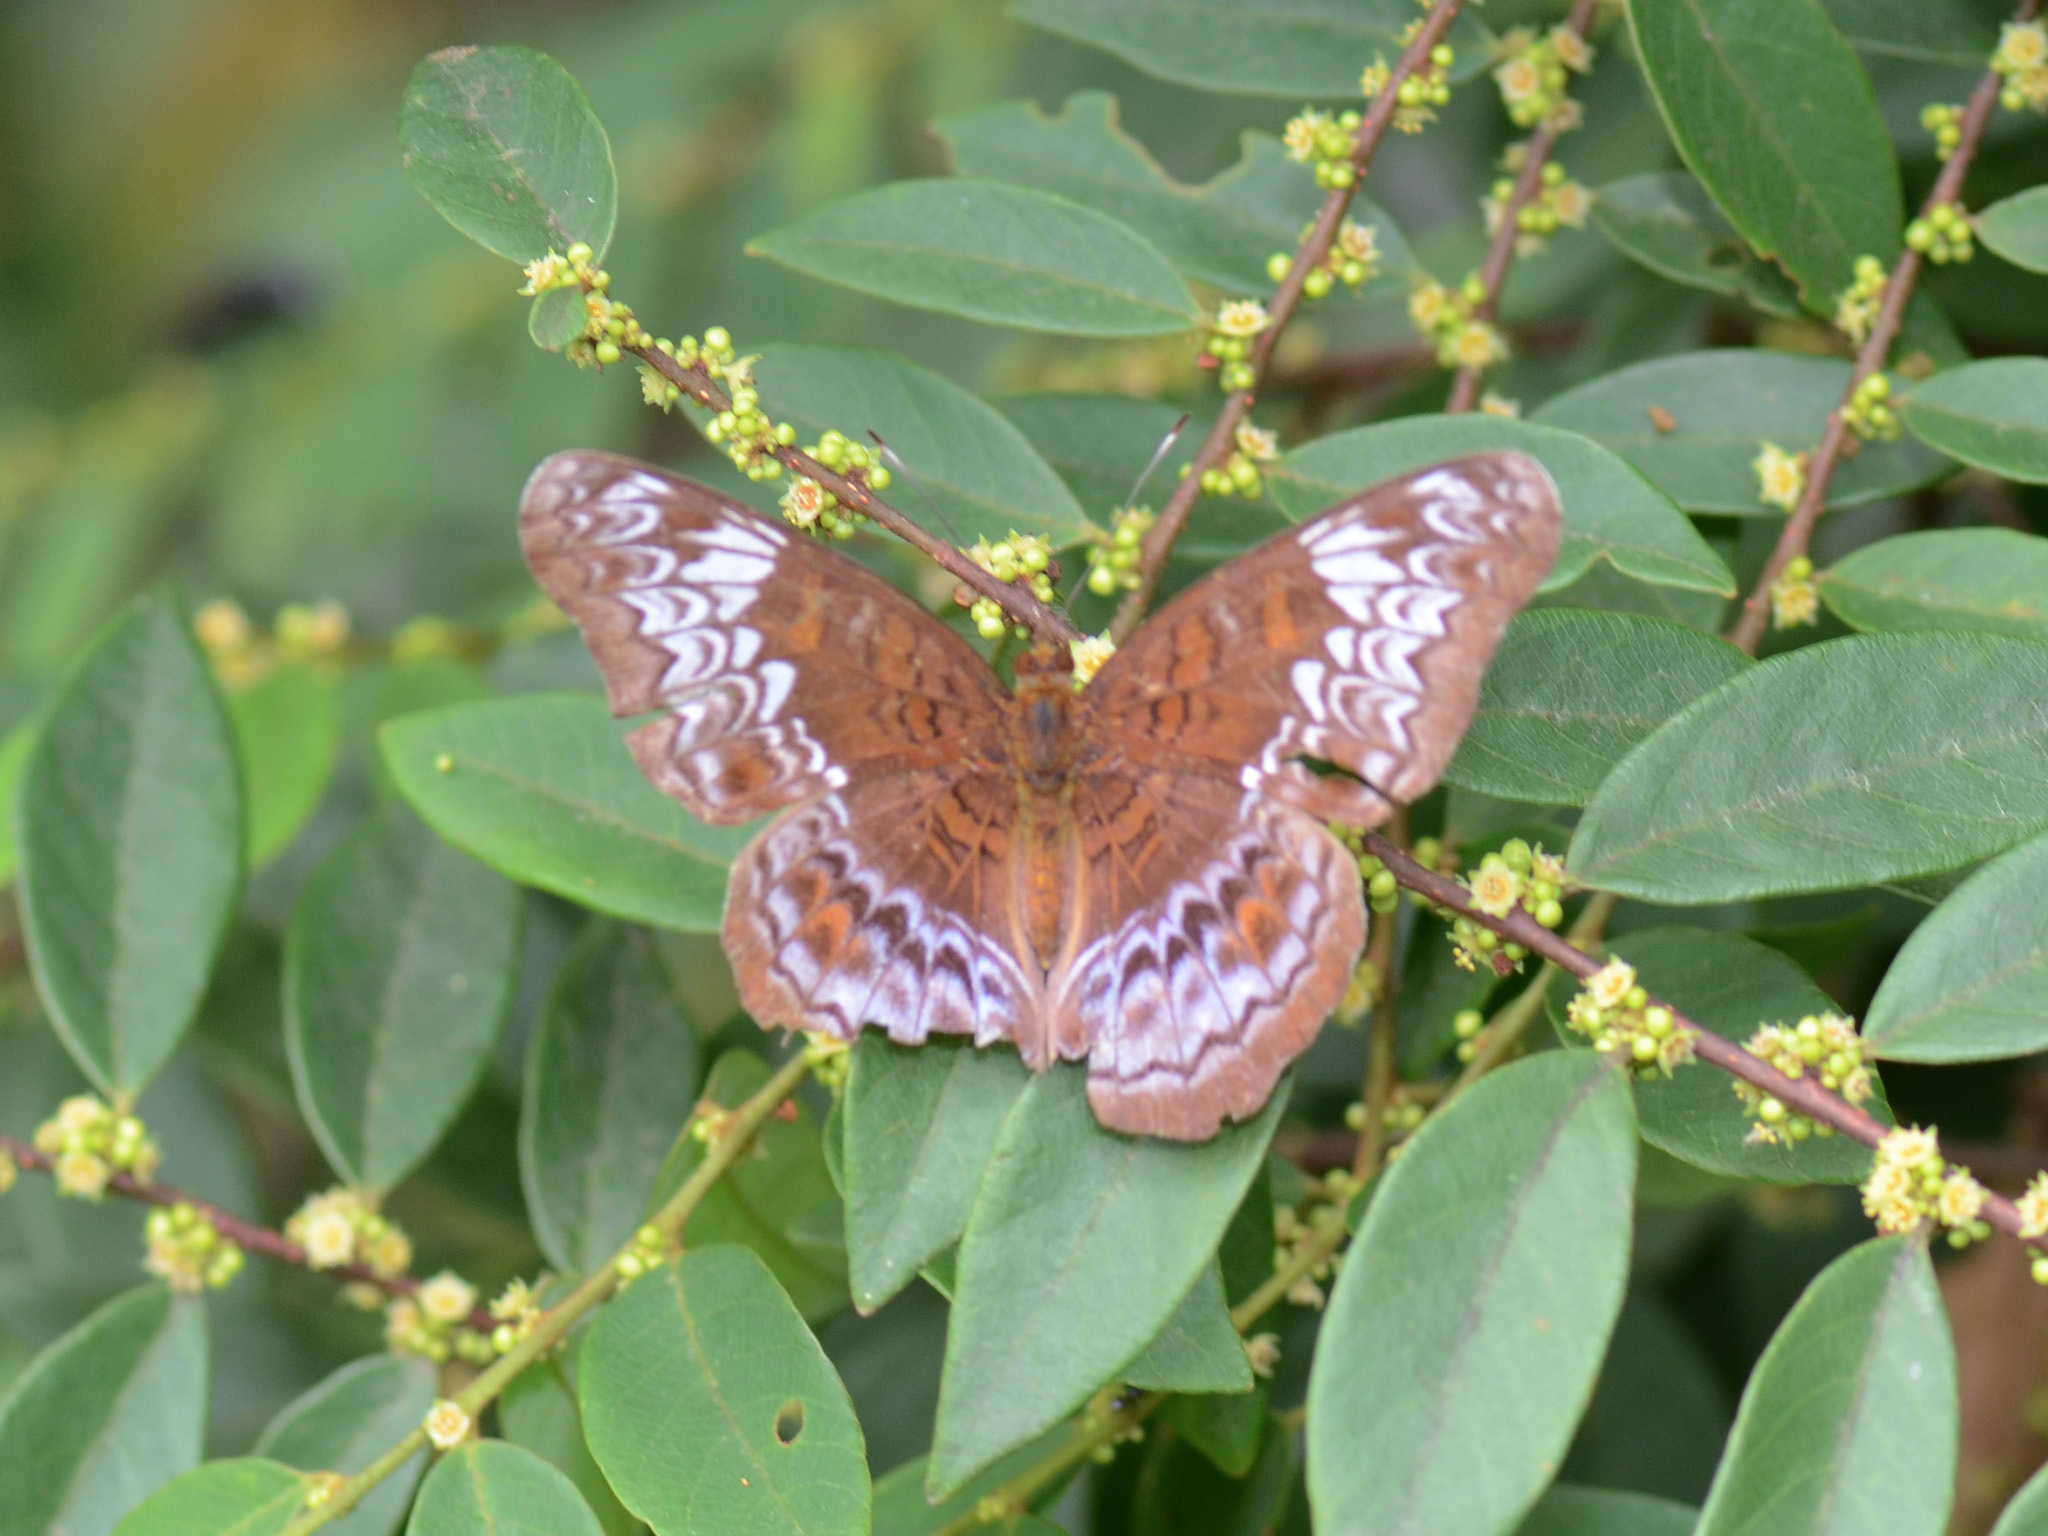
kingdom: Animalia
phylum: Arthropoda
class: Insecta
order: Lepidoptera
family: Nymphalidae
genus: Lebadea
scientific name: Lebadea martha
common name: Knight
